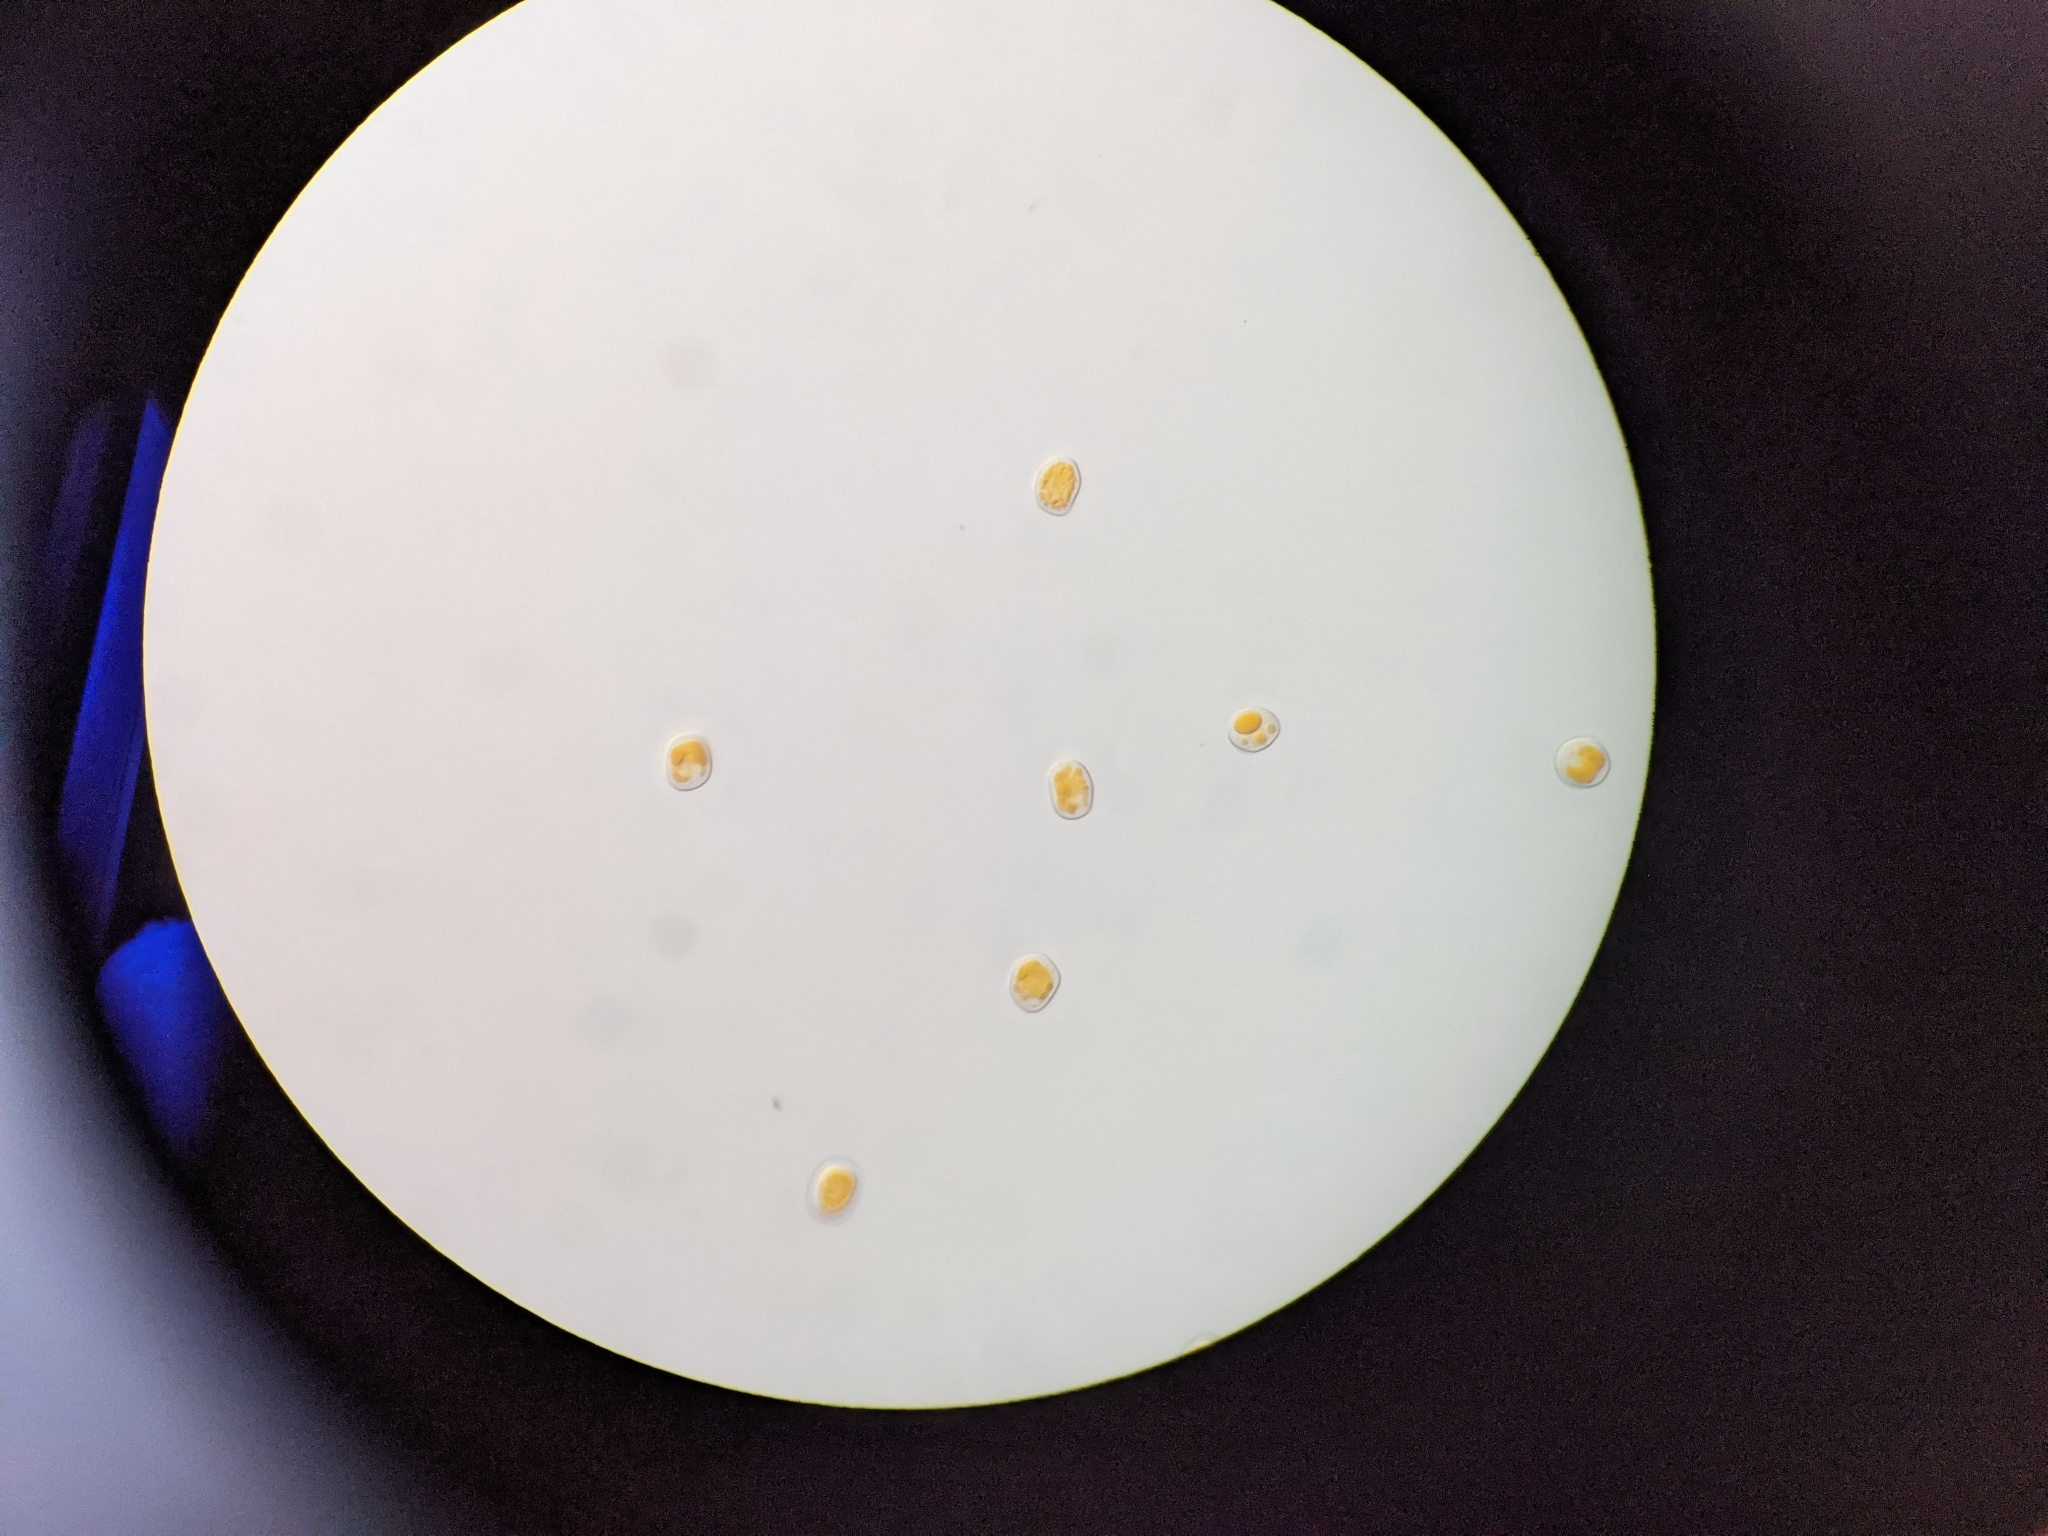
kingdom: Fungi
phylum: Basidiomycota
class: Pucciniomycetes
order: Pucciniales
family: Pucciniaceae
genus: Puccinia
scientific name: Puccinia coronata
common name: Crown rust
